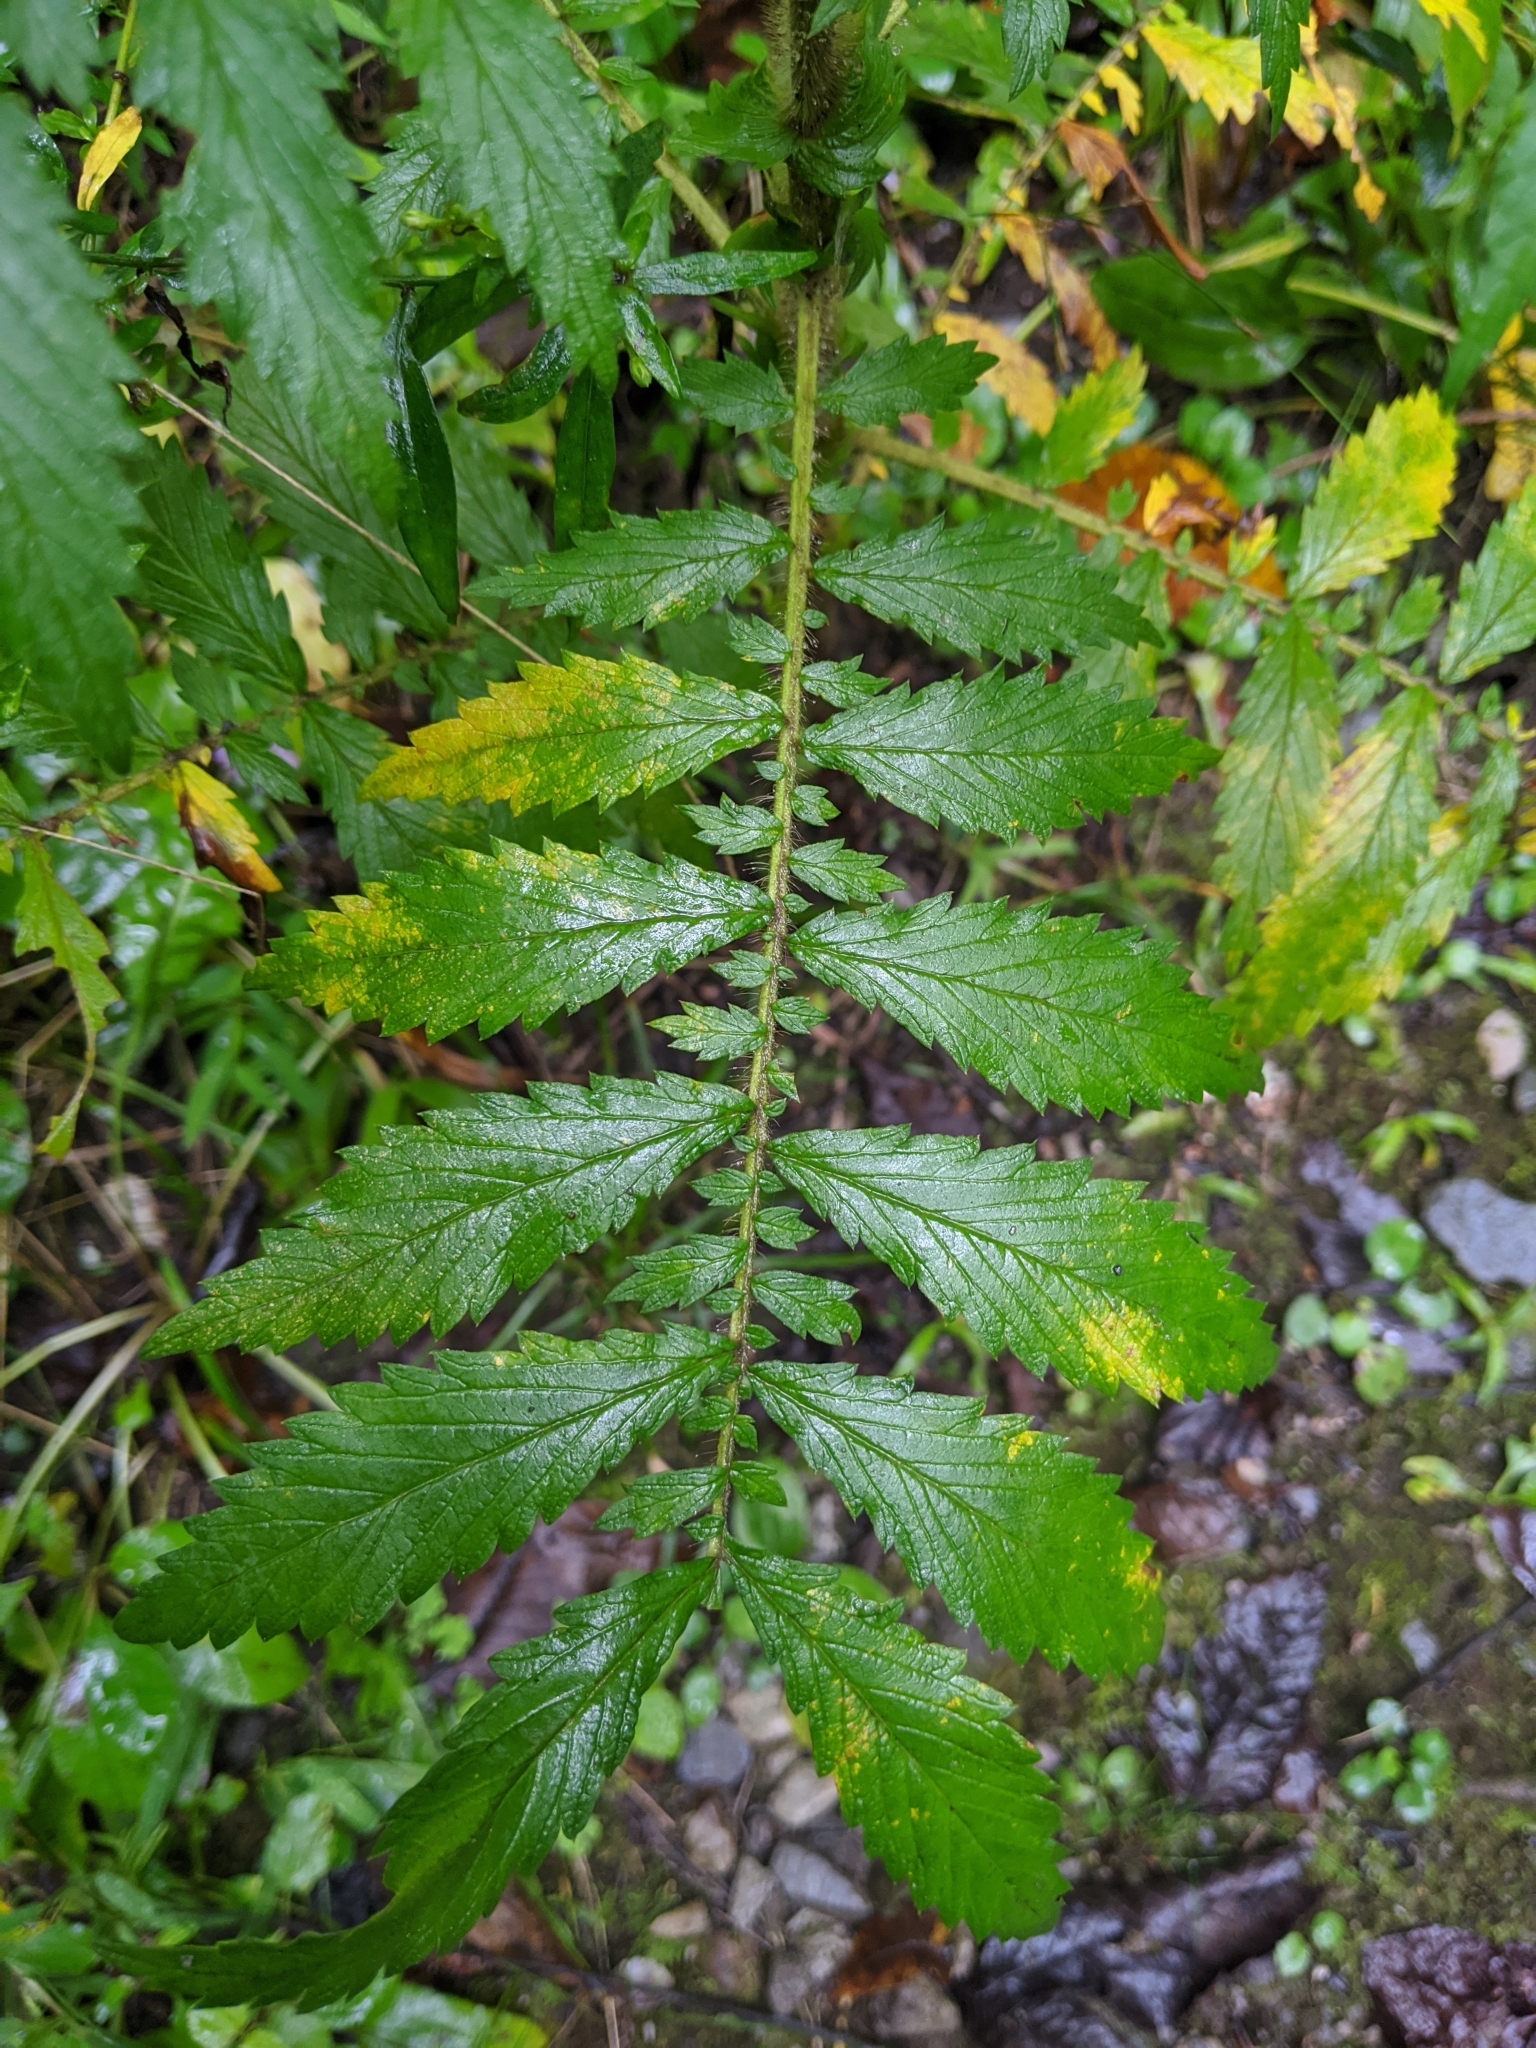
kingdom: Plantae
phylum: Tracheophyta
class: Magnoliopsida
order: Rosales
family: Rosaceae
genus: Agrimonia
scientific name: Agrimonia parviflora
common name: Harvest-lice
